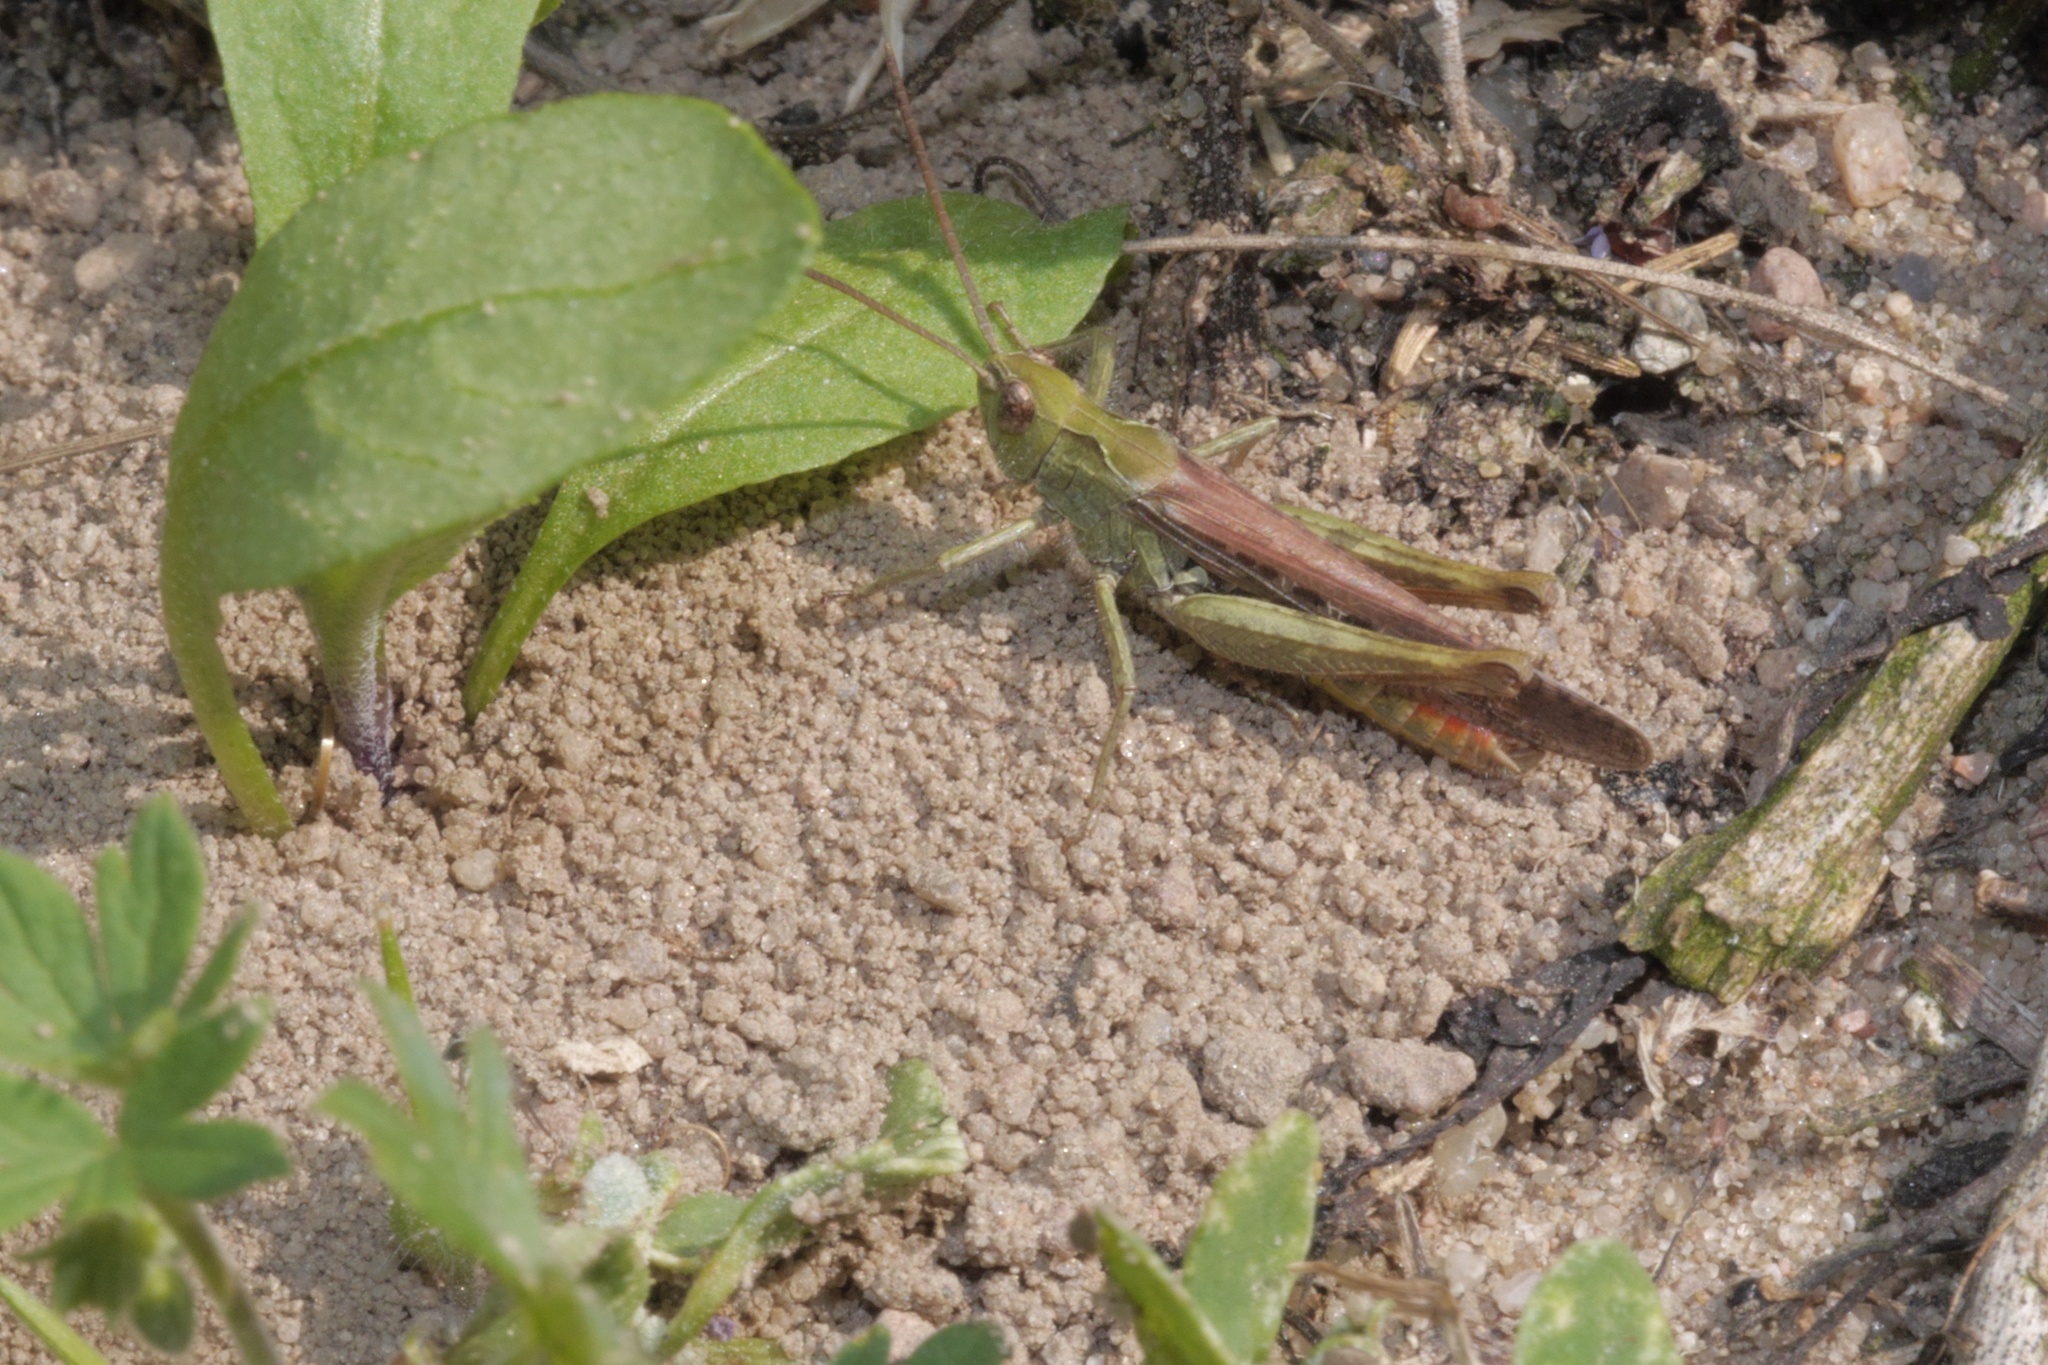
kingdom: Animalia
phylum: Arthropoda
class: Insecta
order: Orthoptera
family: Acrididae
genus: Chorthippus
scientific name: Chorthippus brunneus
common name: Field grasshopper
